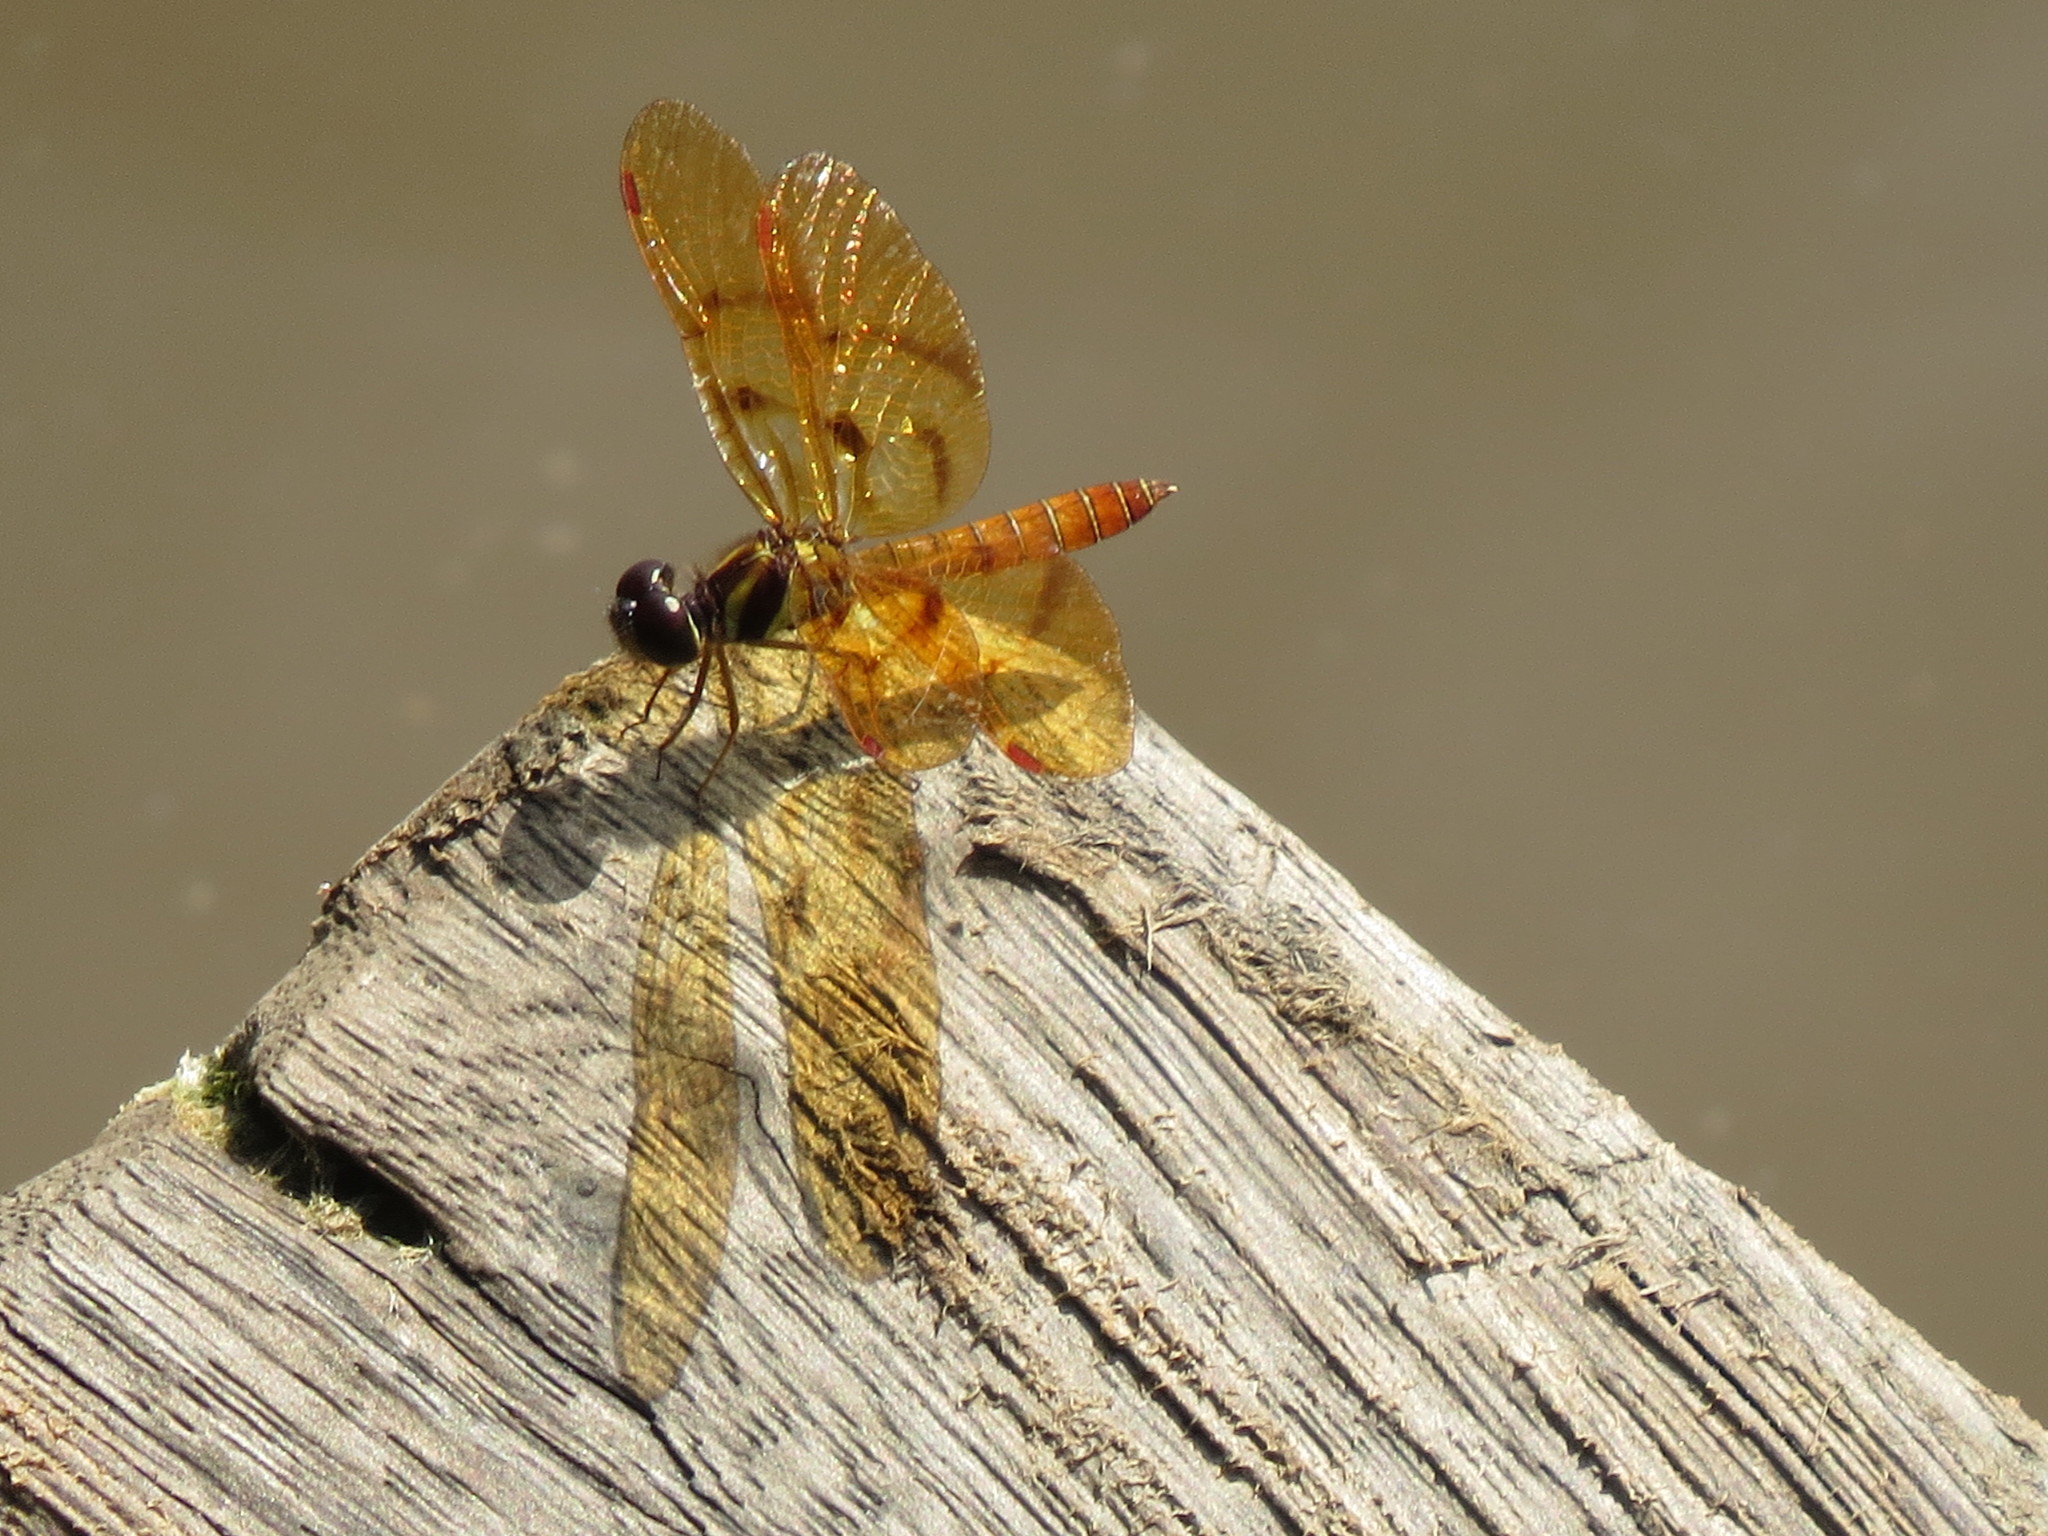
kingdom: Animalia
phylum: Arthropoda
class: Insecta
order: Odonata
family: Libellulidae
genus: Perithemis
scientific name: Perithemis lais
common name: Fine-banded amberwing
